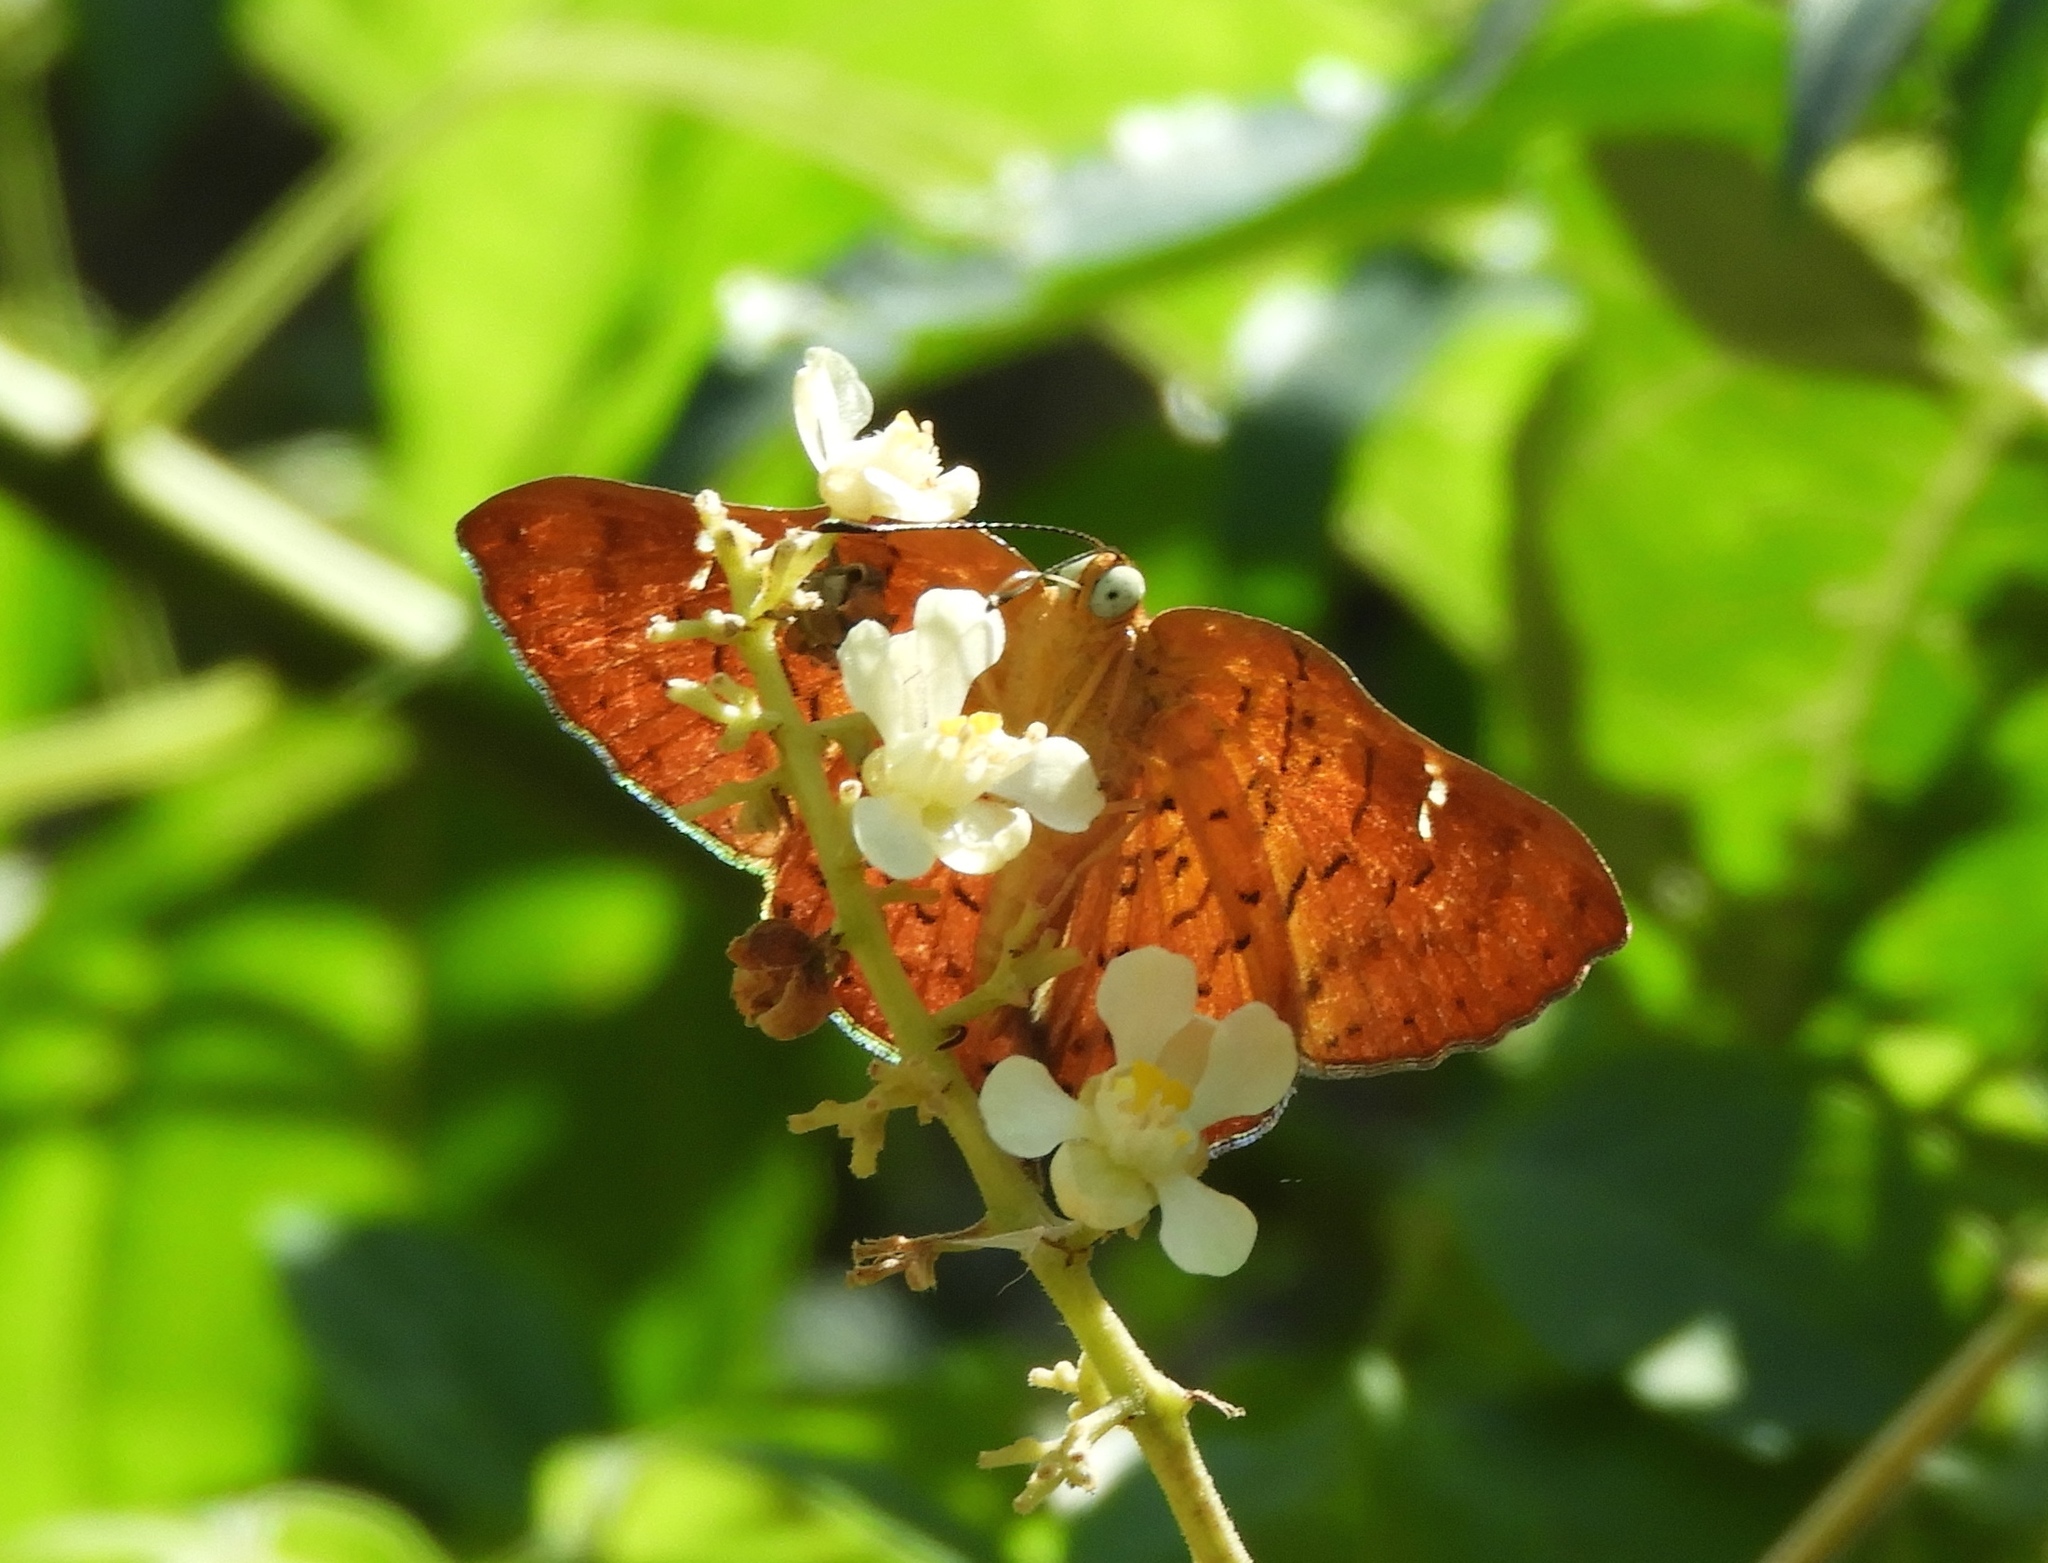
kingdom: Animalia
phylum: Arthropoda
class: Insecta
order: Lepidoptera
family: Riodinidae
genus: Curvie
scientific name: Curvie emesia
